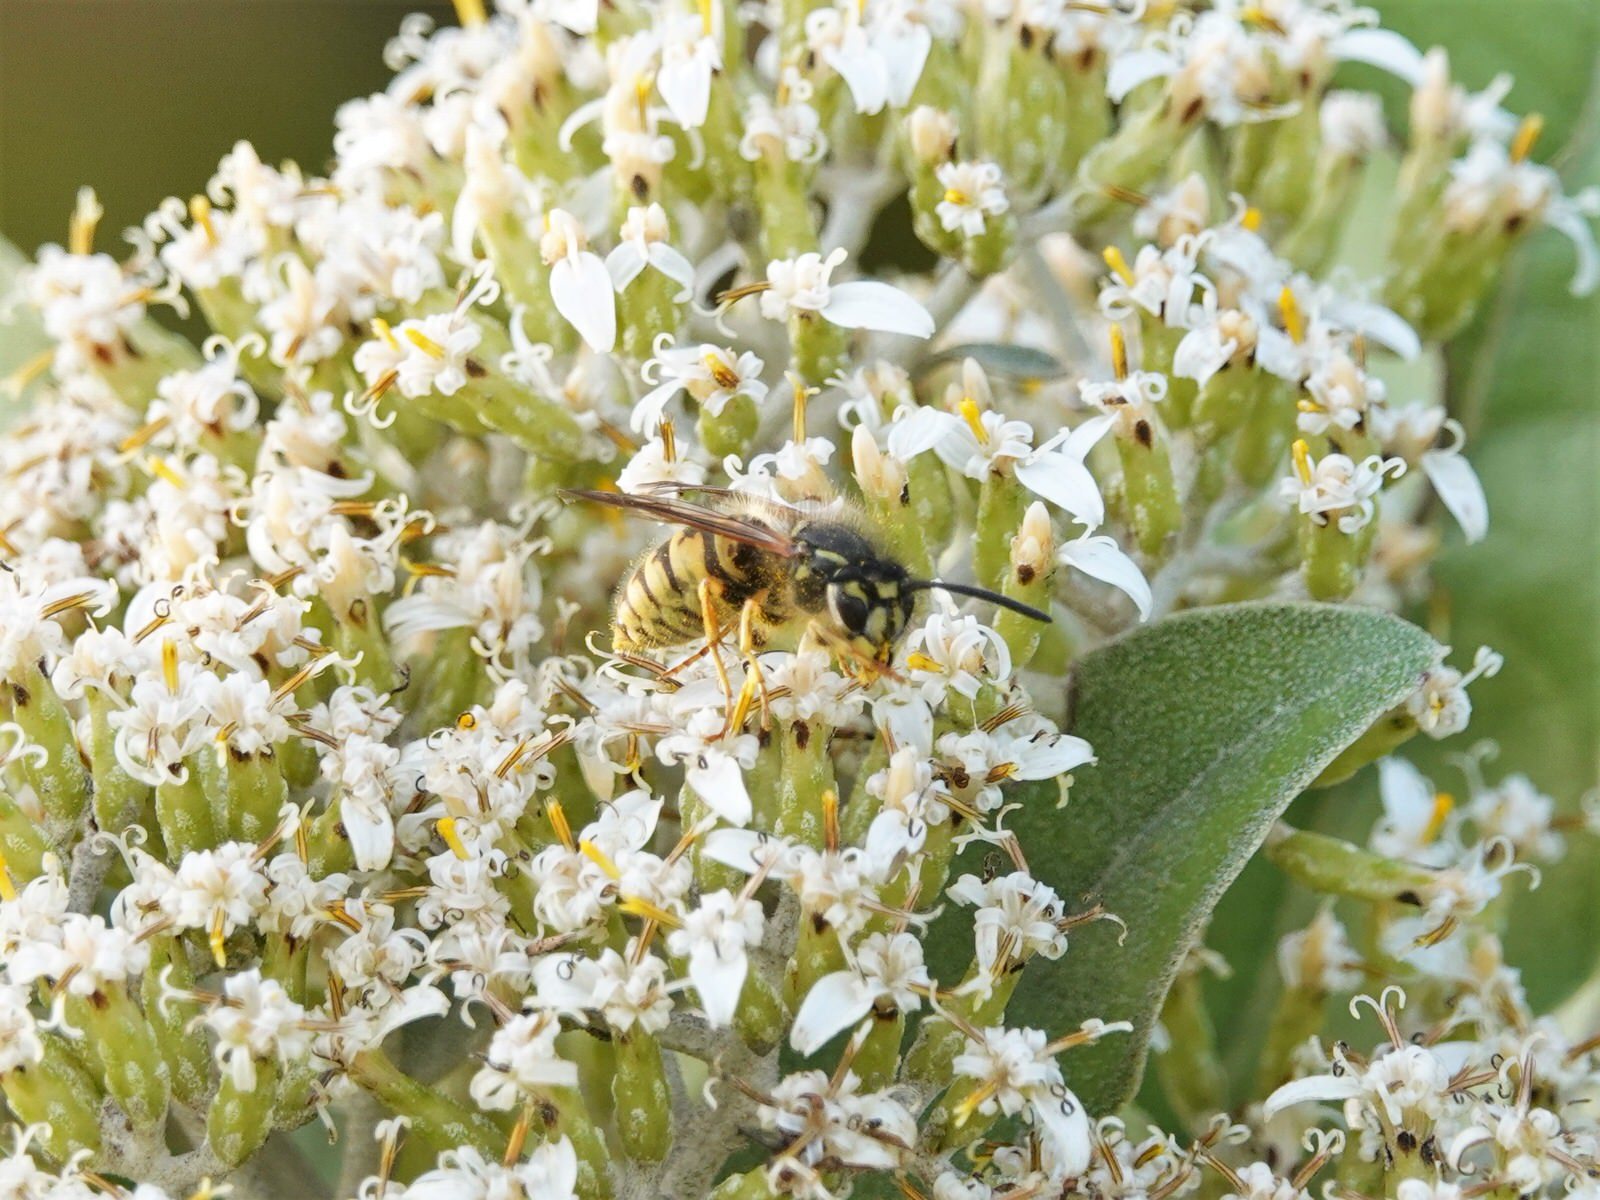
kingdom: Animalia
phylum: Arthropoda
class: Insecta
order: Hymenoptera
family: Vespidae
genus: Vespula
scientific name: Vespula vulgaris
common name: Common wasp
